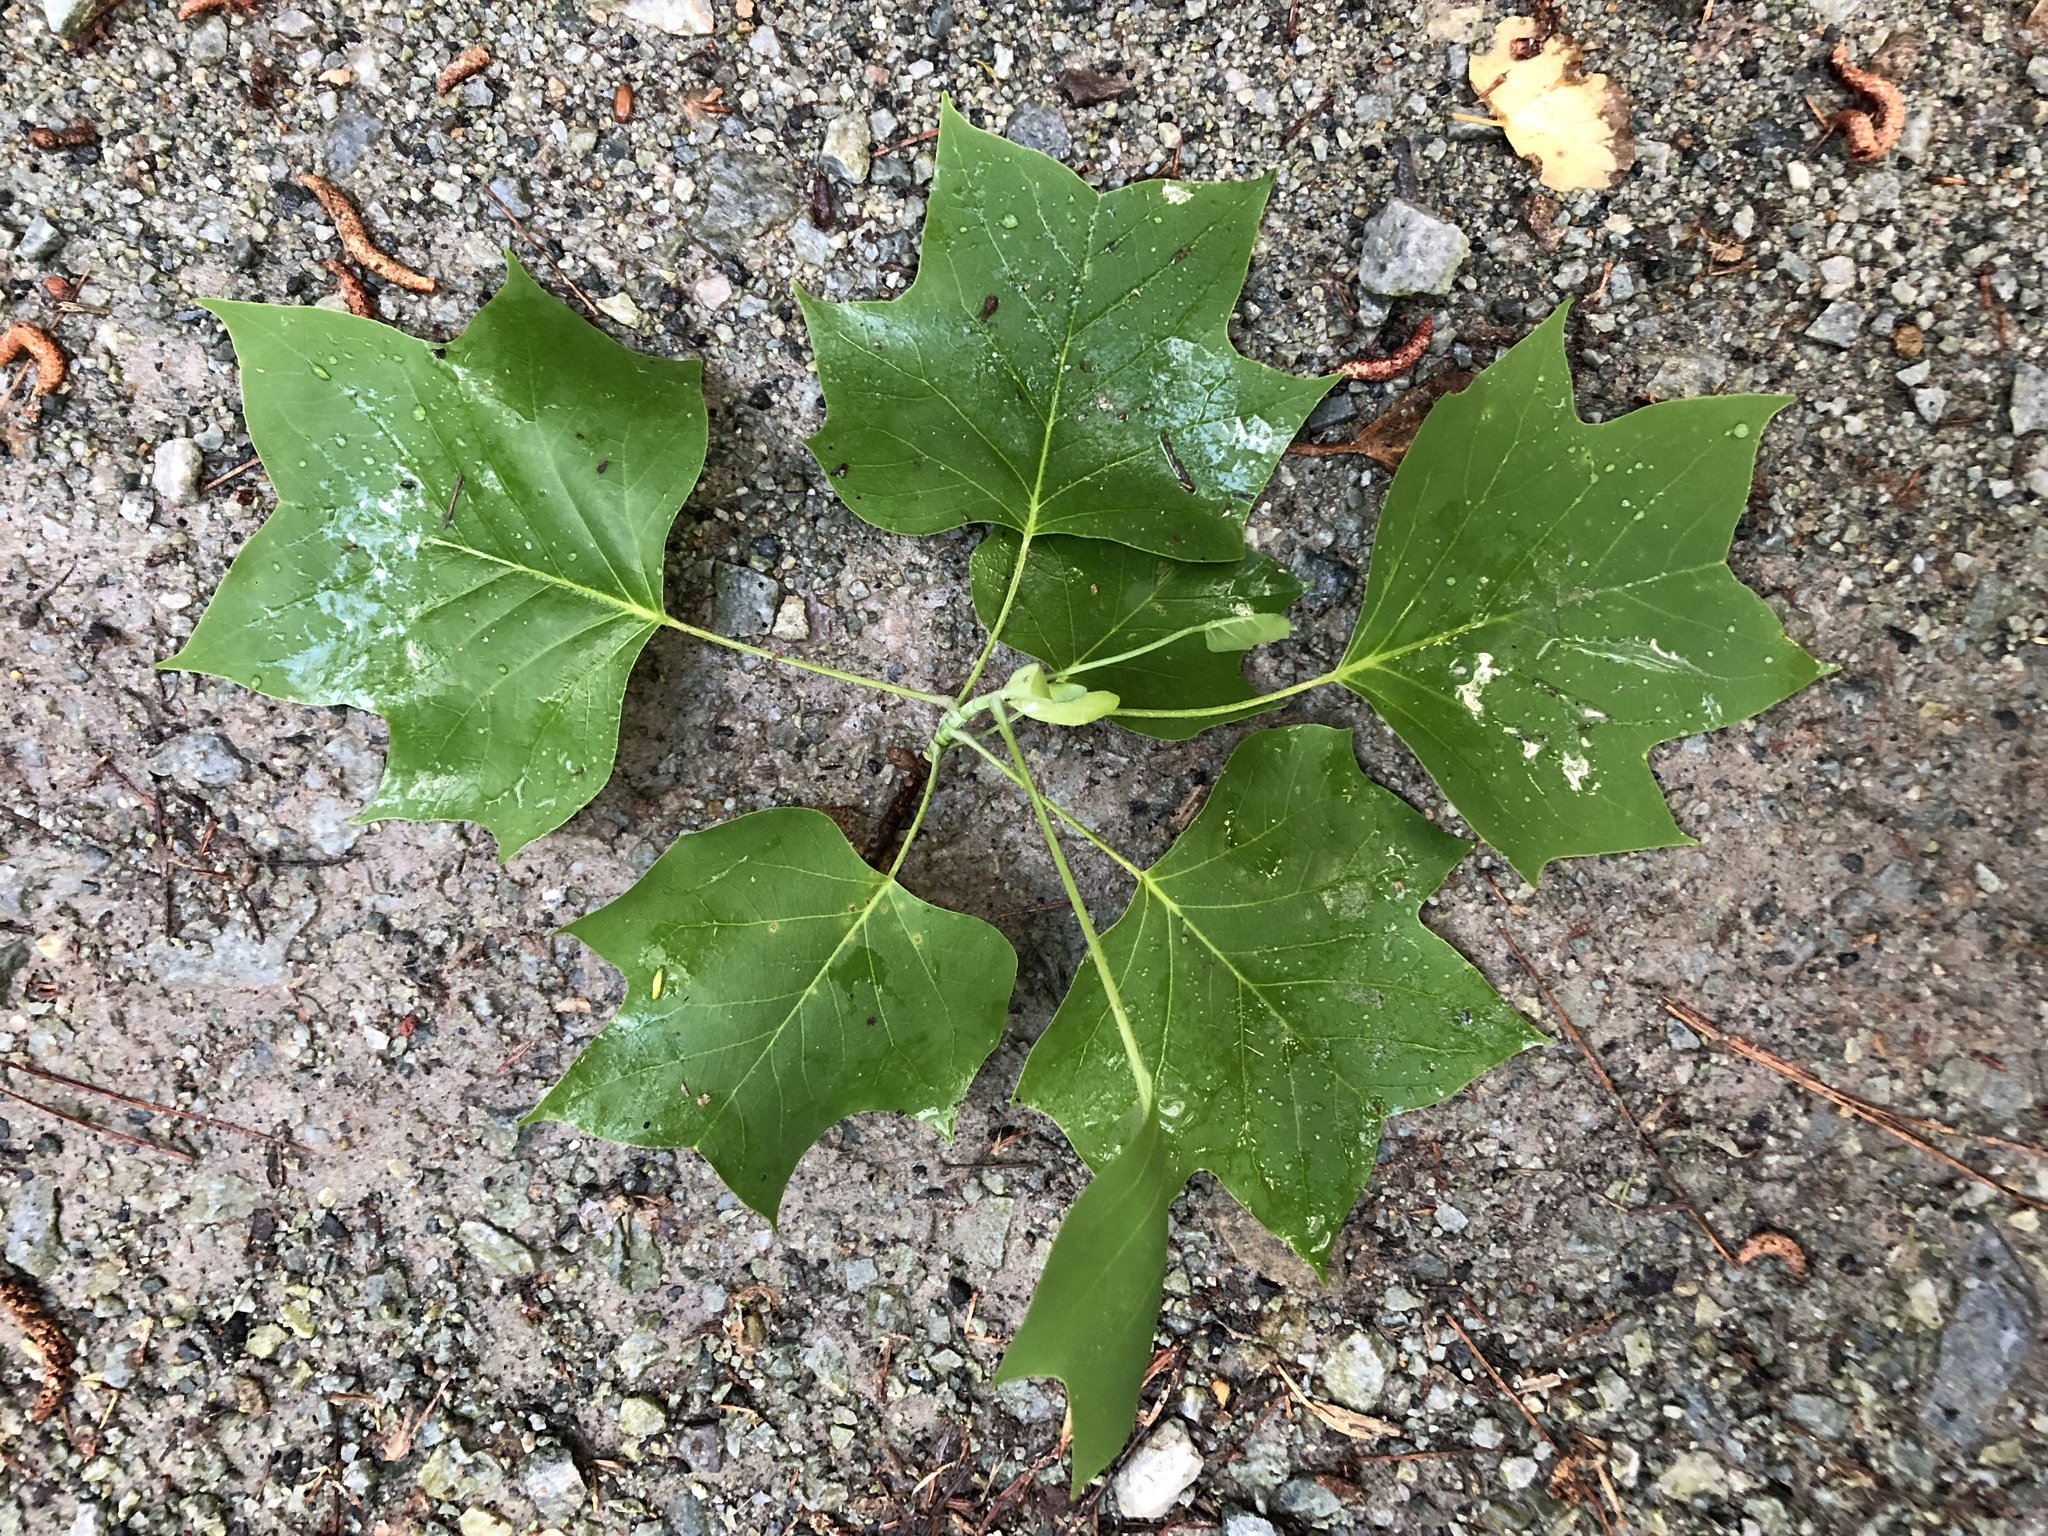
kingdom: Plantae
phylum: Tracheophyta
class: Magnoliopsida
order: Magnoliales
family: Magnoliaceae
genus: Liriodendron
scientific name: Liriodendron tulipifera
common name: Tulip tree
